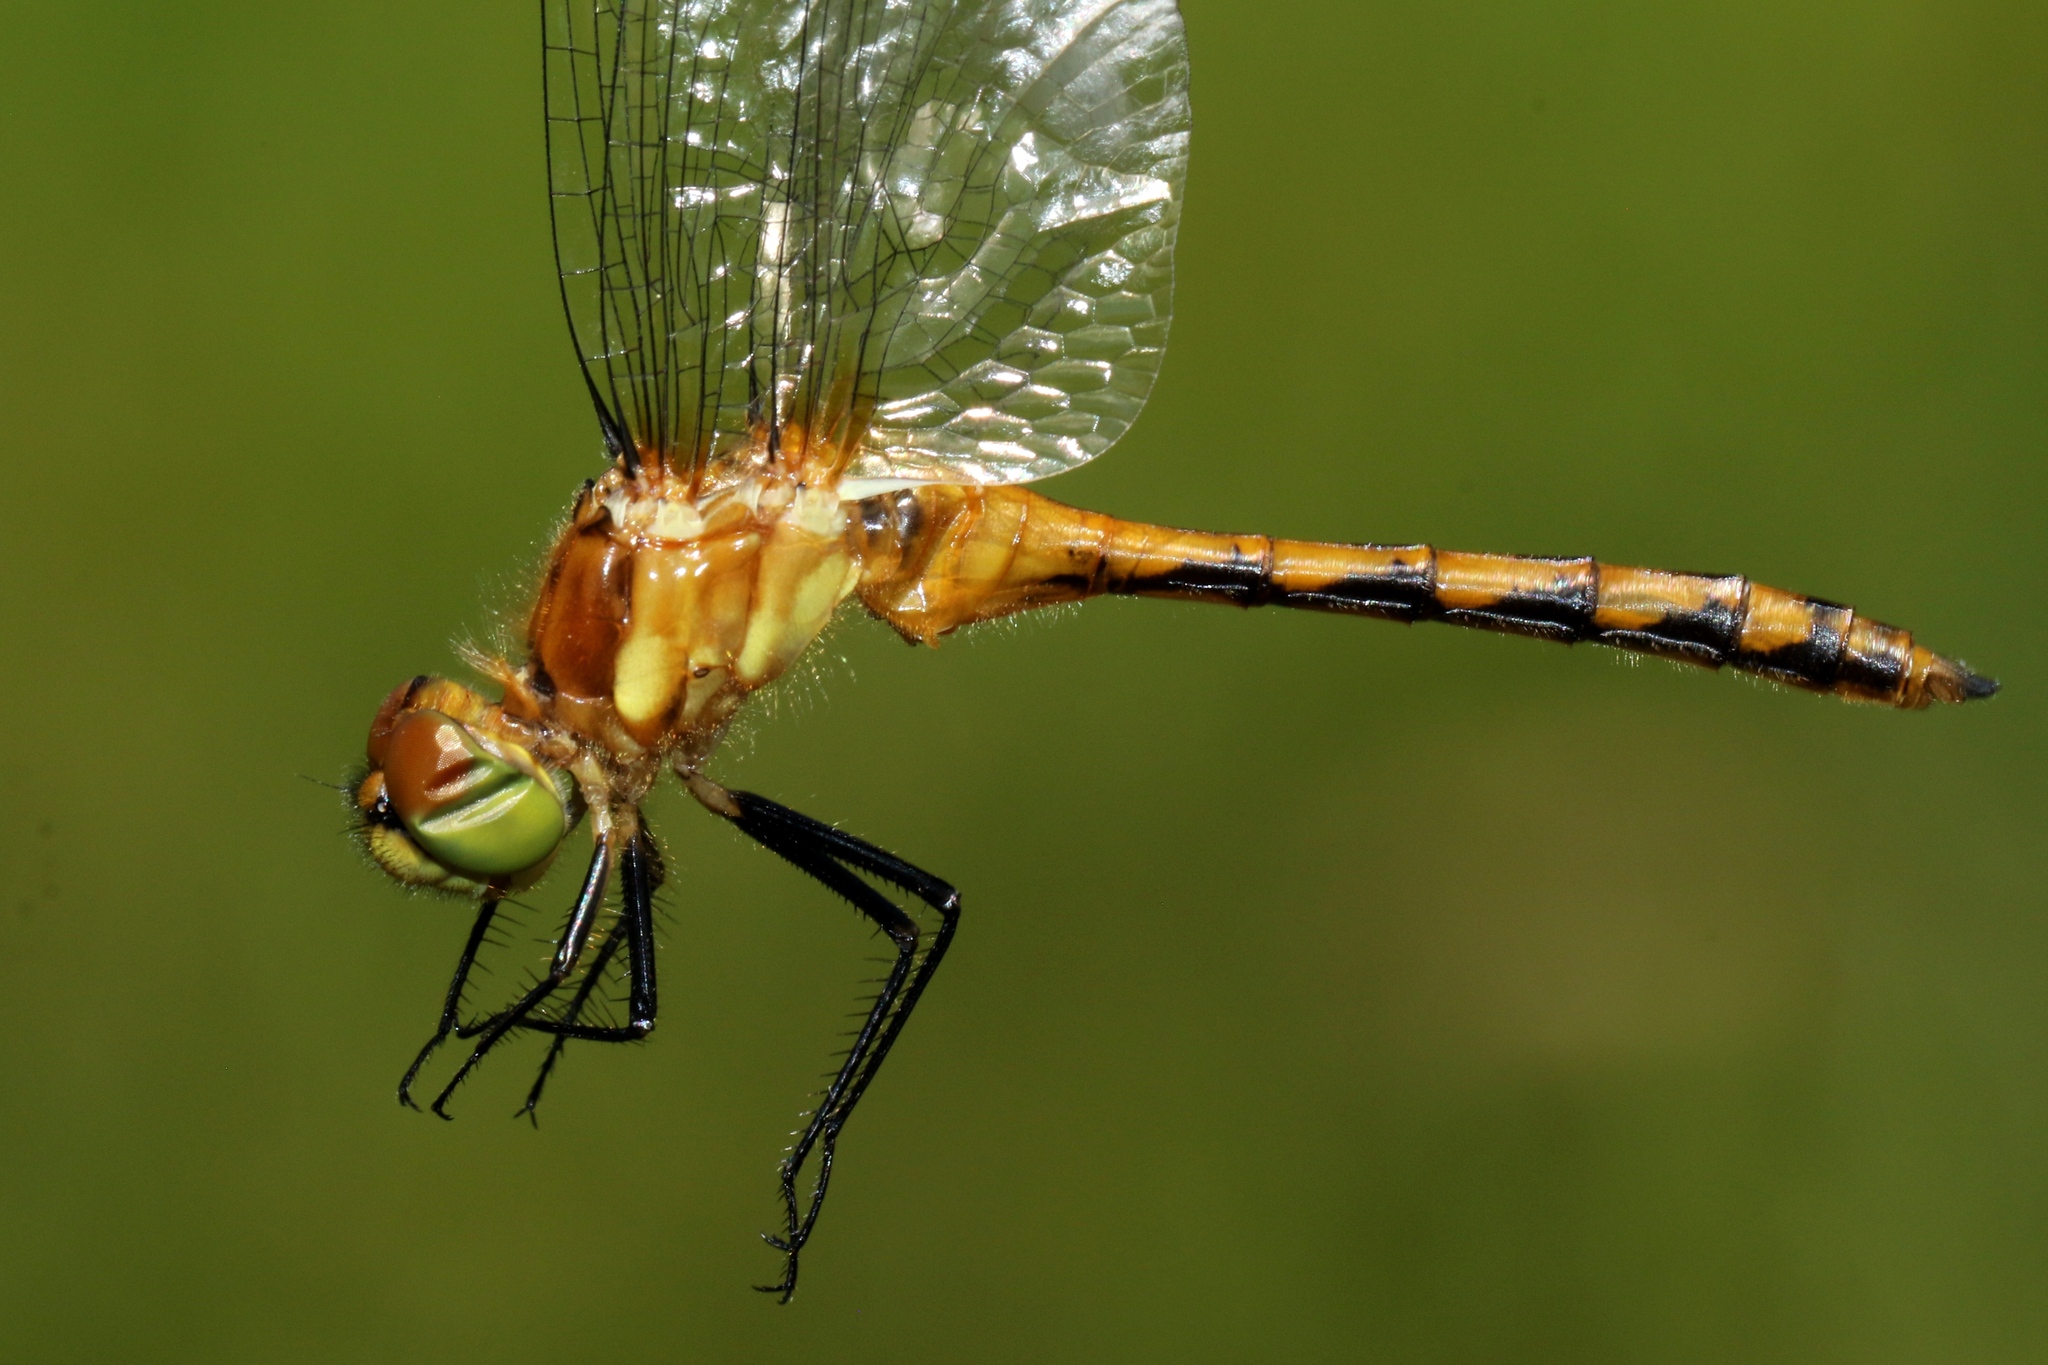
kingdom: Animalia
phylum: Arthropoda
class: Insecta
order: Odonata
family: Libellulidae
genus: Sympetrum
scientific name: Sympetrum obtrusum
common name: White-faced meadowhawk
